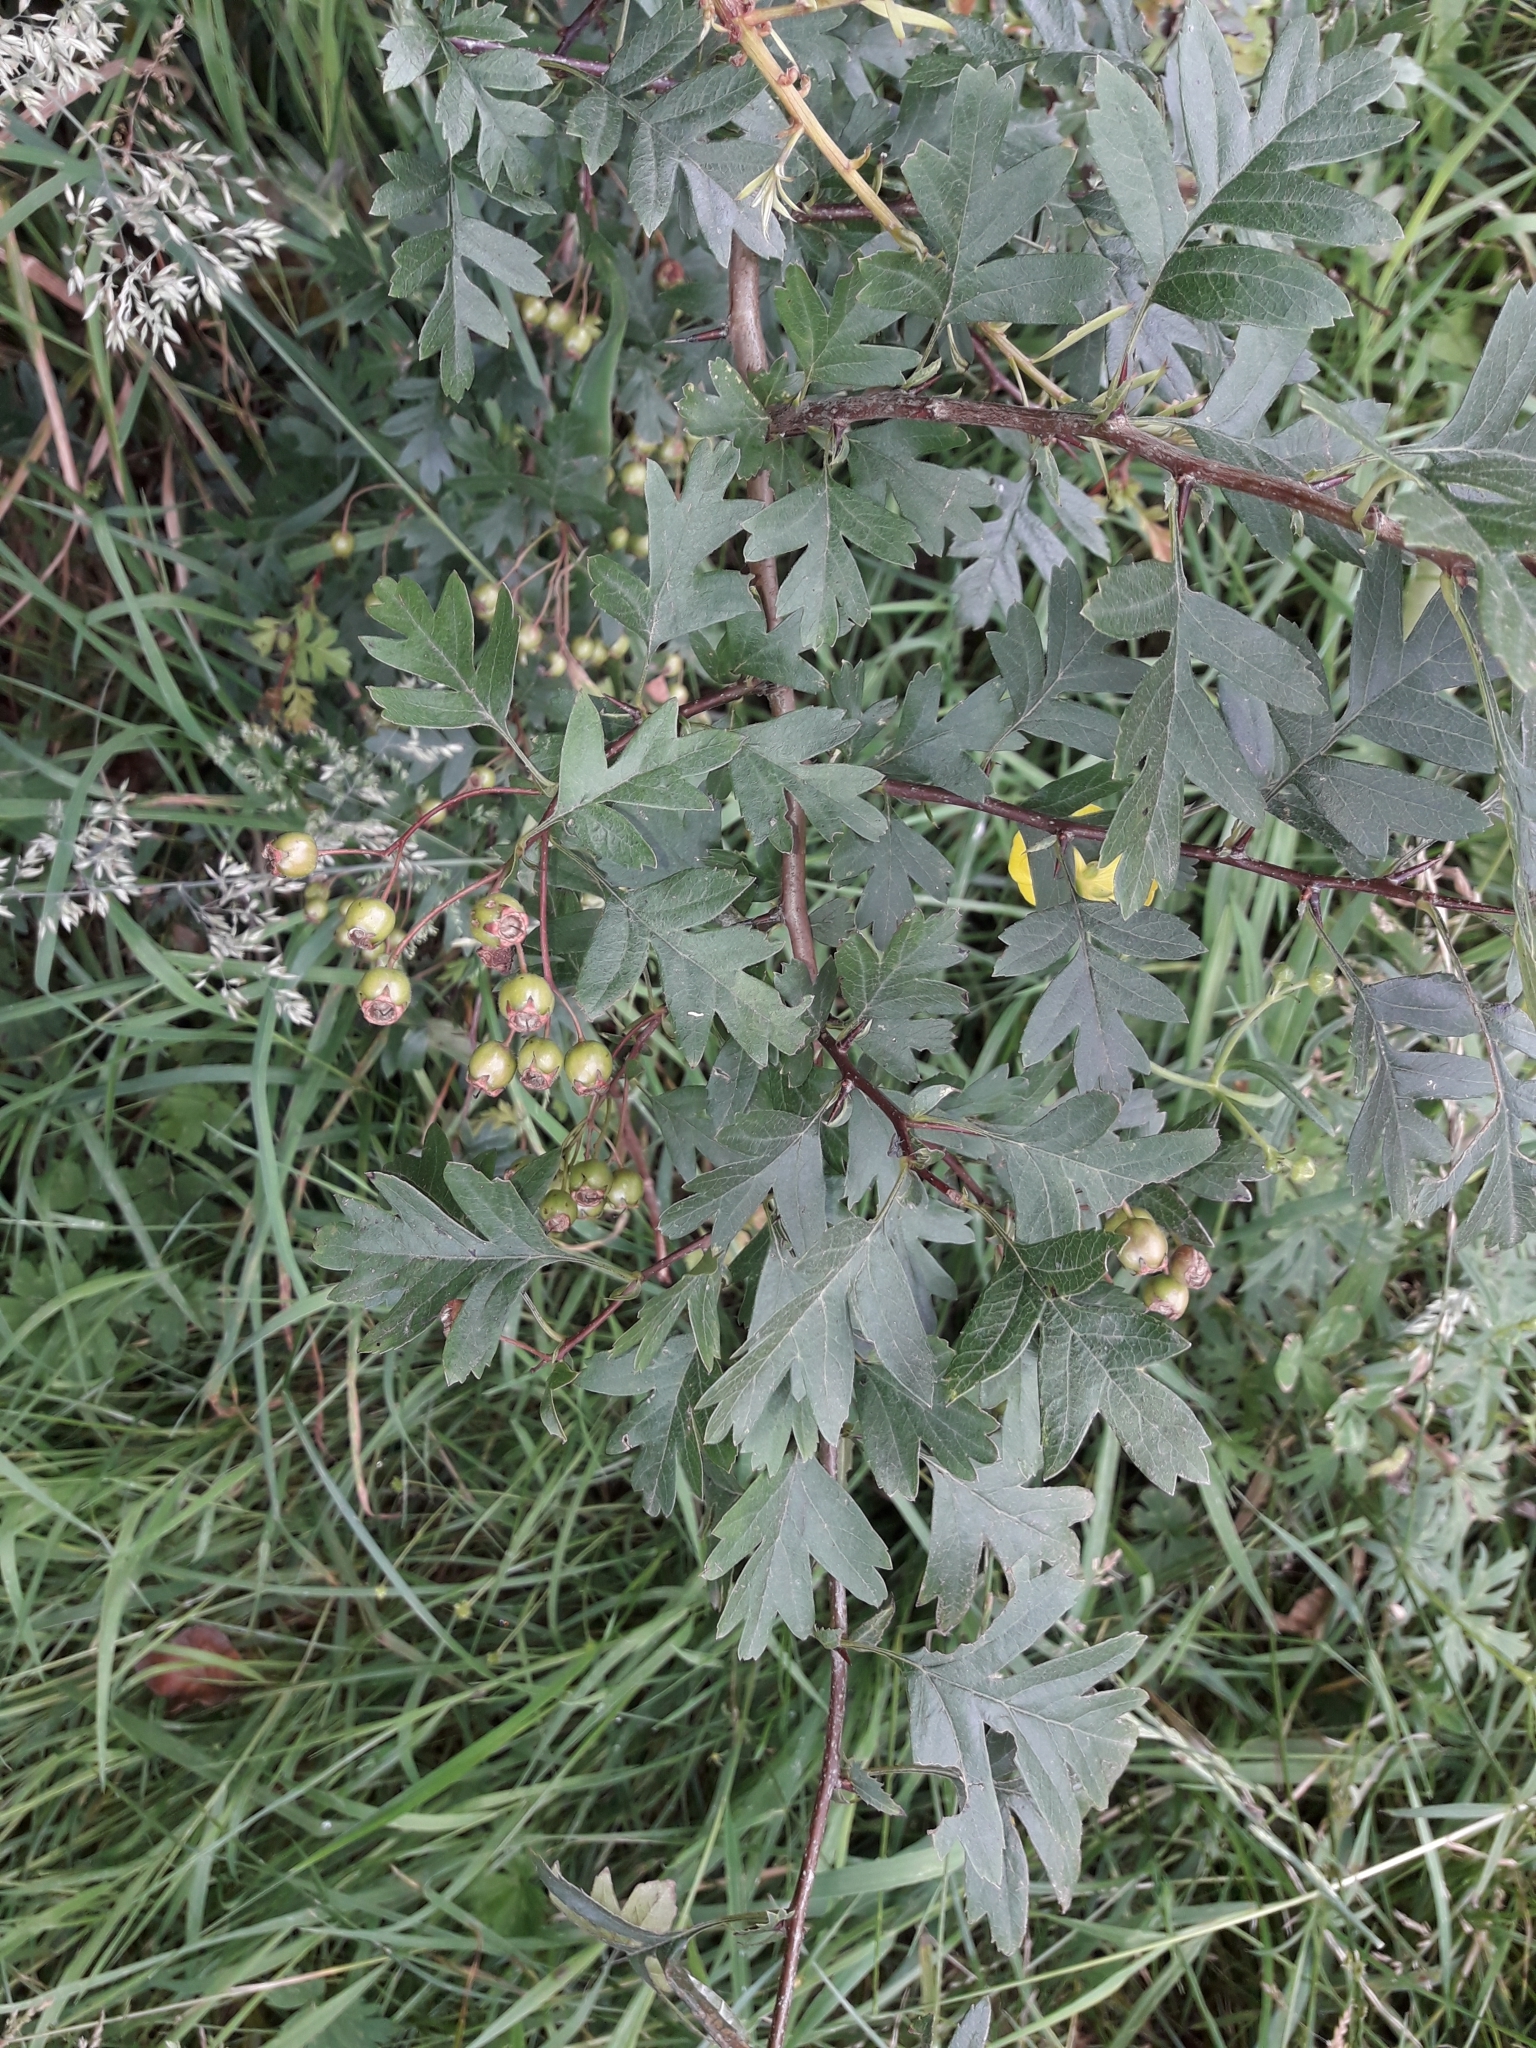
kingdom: Plantae
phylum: Tracheophyta
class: Magnoliopsida
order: Rosales
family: Rosaceae
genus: Crataegus
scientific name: Crataegus monogyna
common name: Hawthorn
